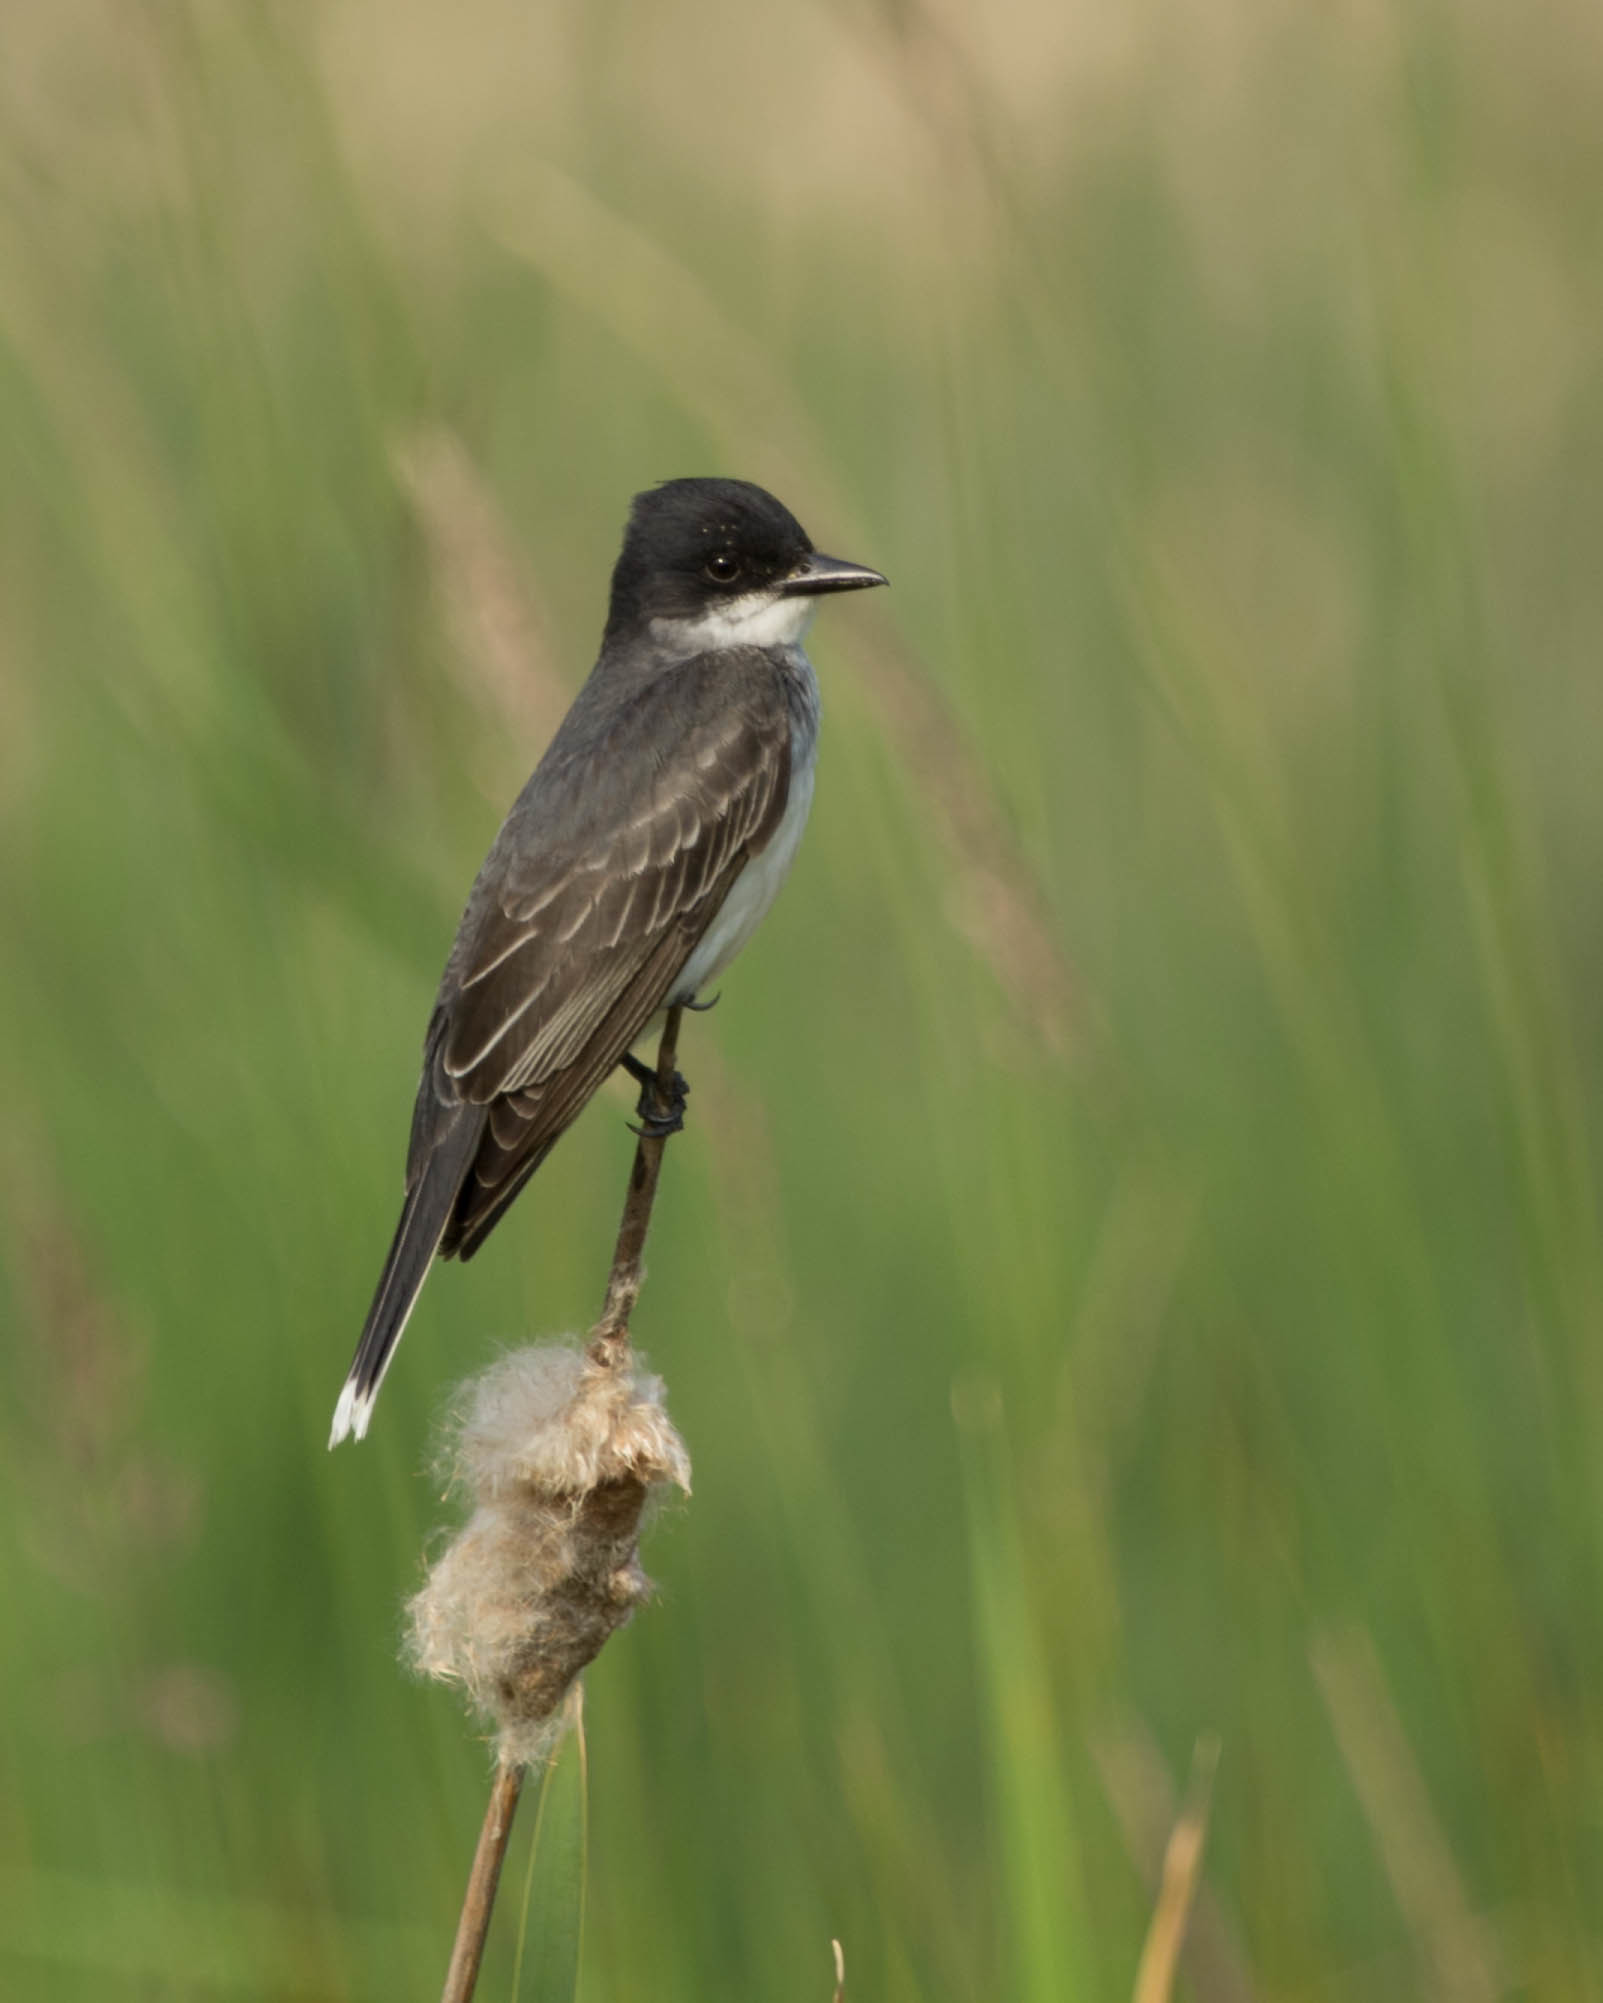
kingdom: Animalia
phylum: Chordata
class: Aves
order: Passeriformes
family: Tyrannidae
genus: Tyrannus
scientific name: Tyrannus tyrannus
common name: Eastern kingbird
